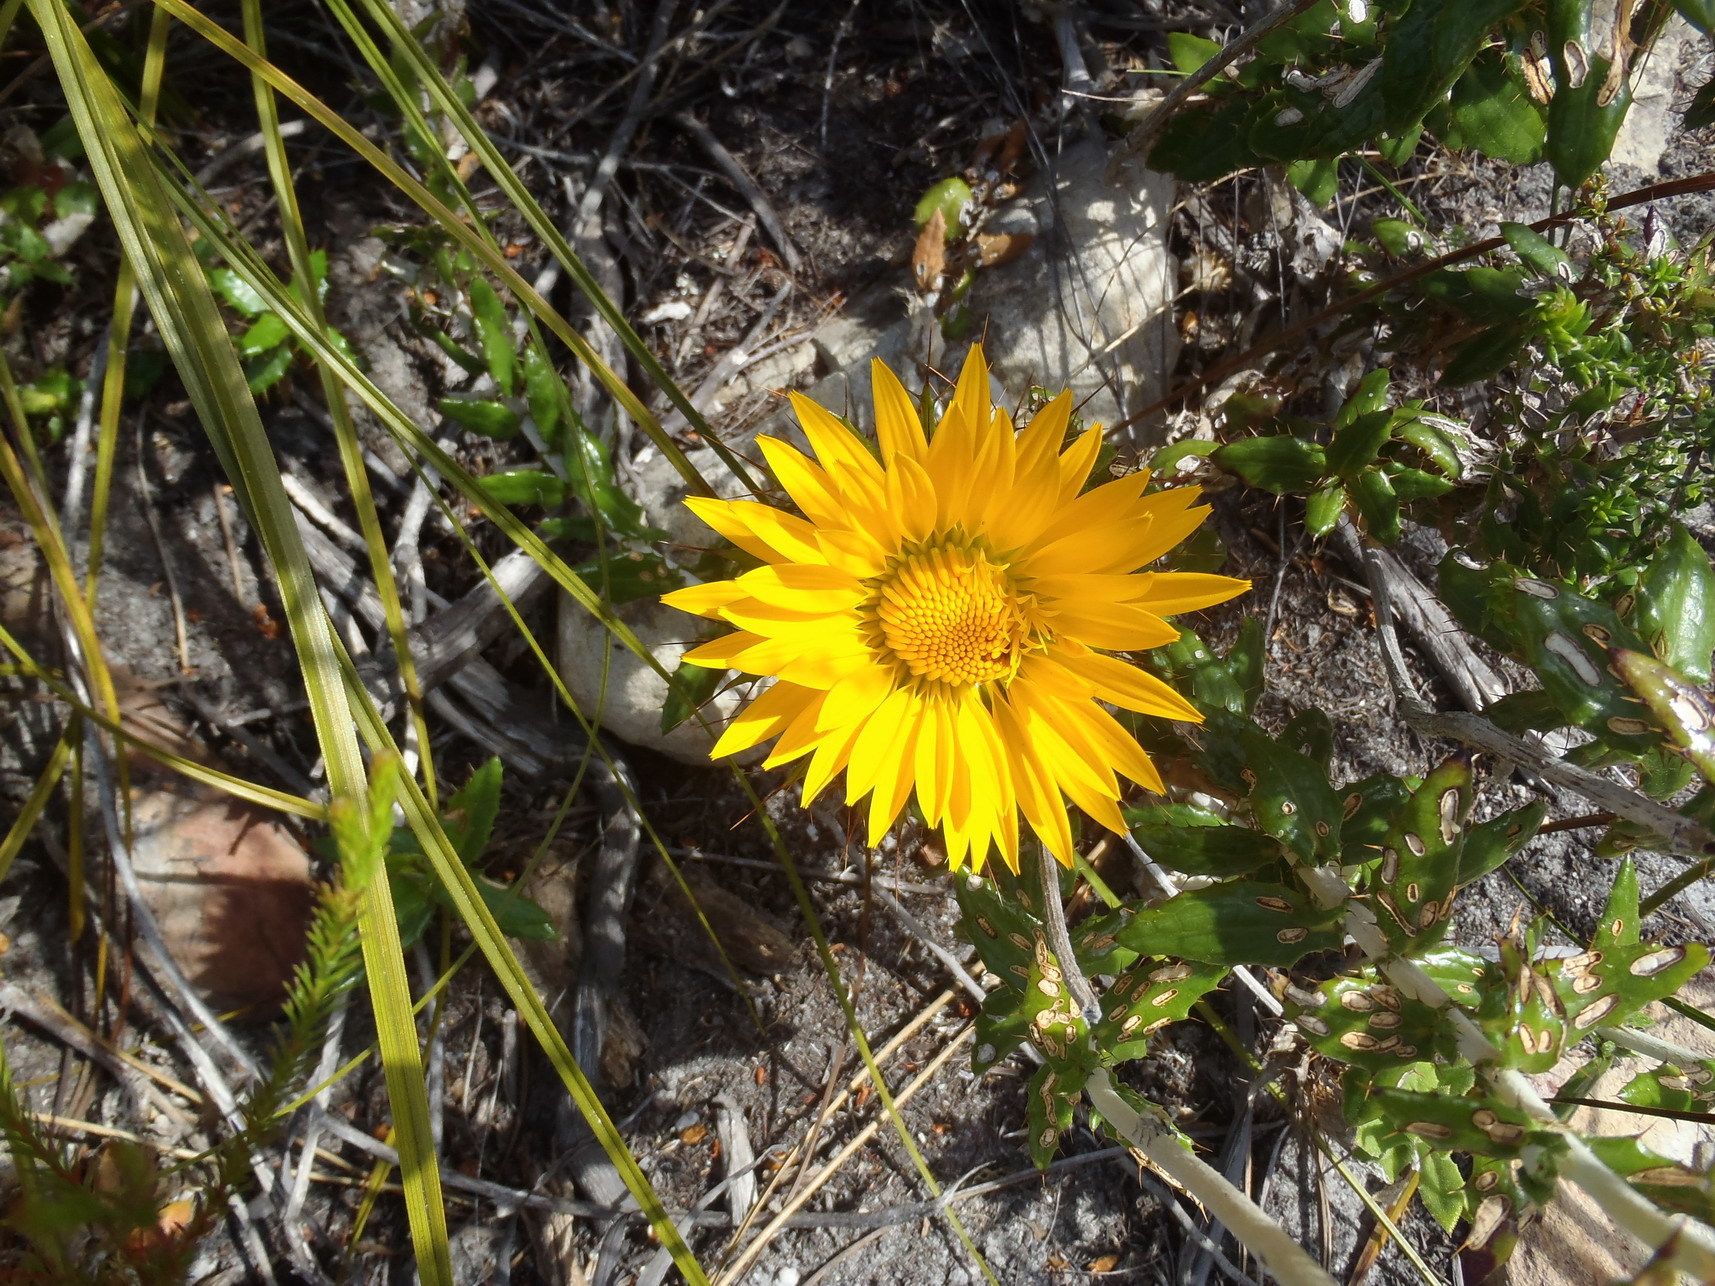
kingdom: Plantae
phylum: Tracheophyta
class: Magnoliopsida
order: Asterales
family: Asteraceae
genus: Berkheya
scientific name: Berkheya barbata
